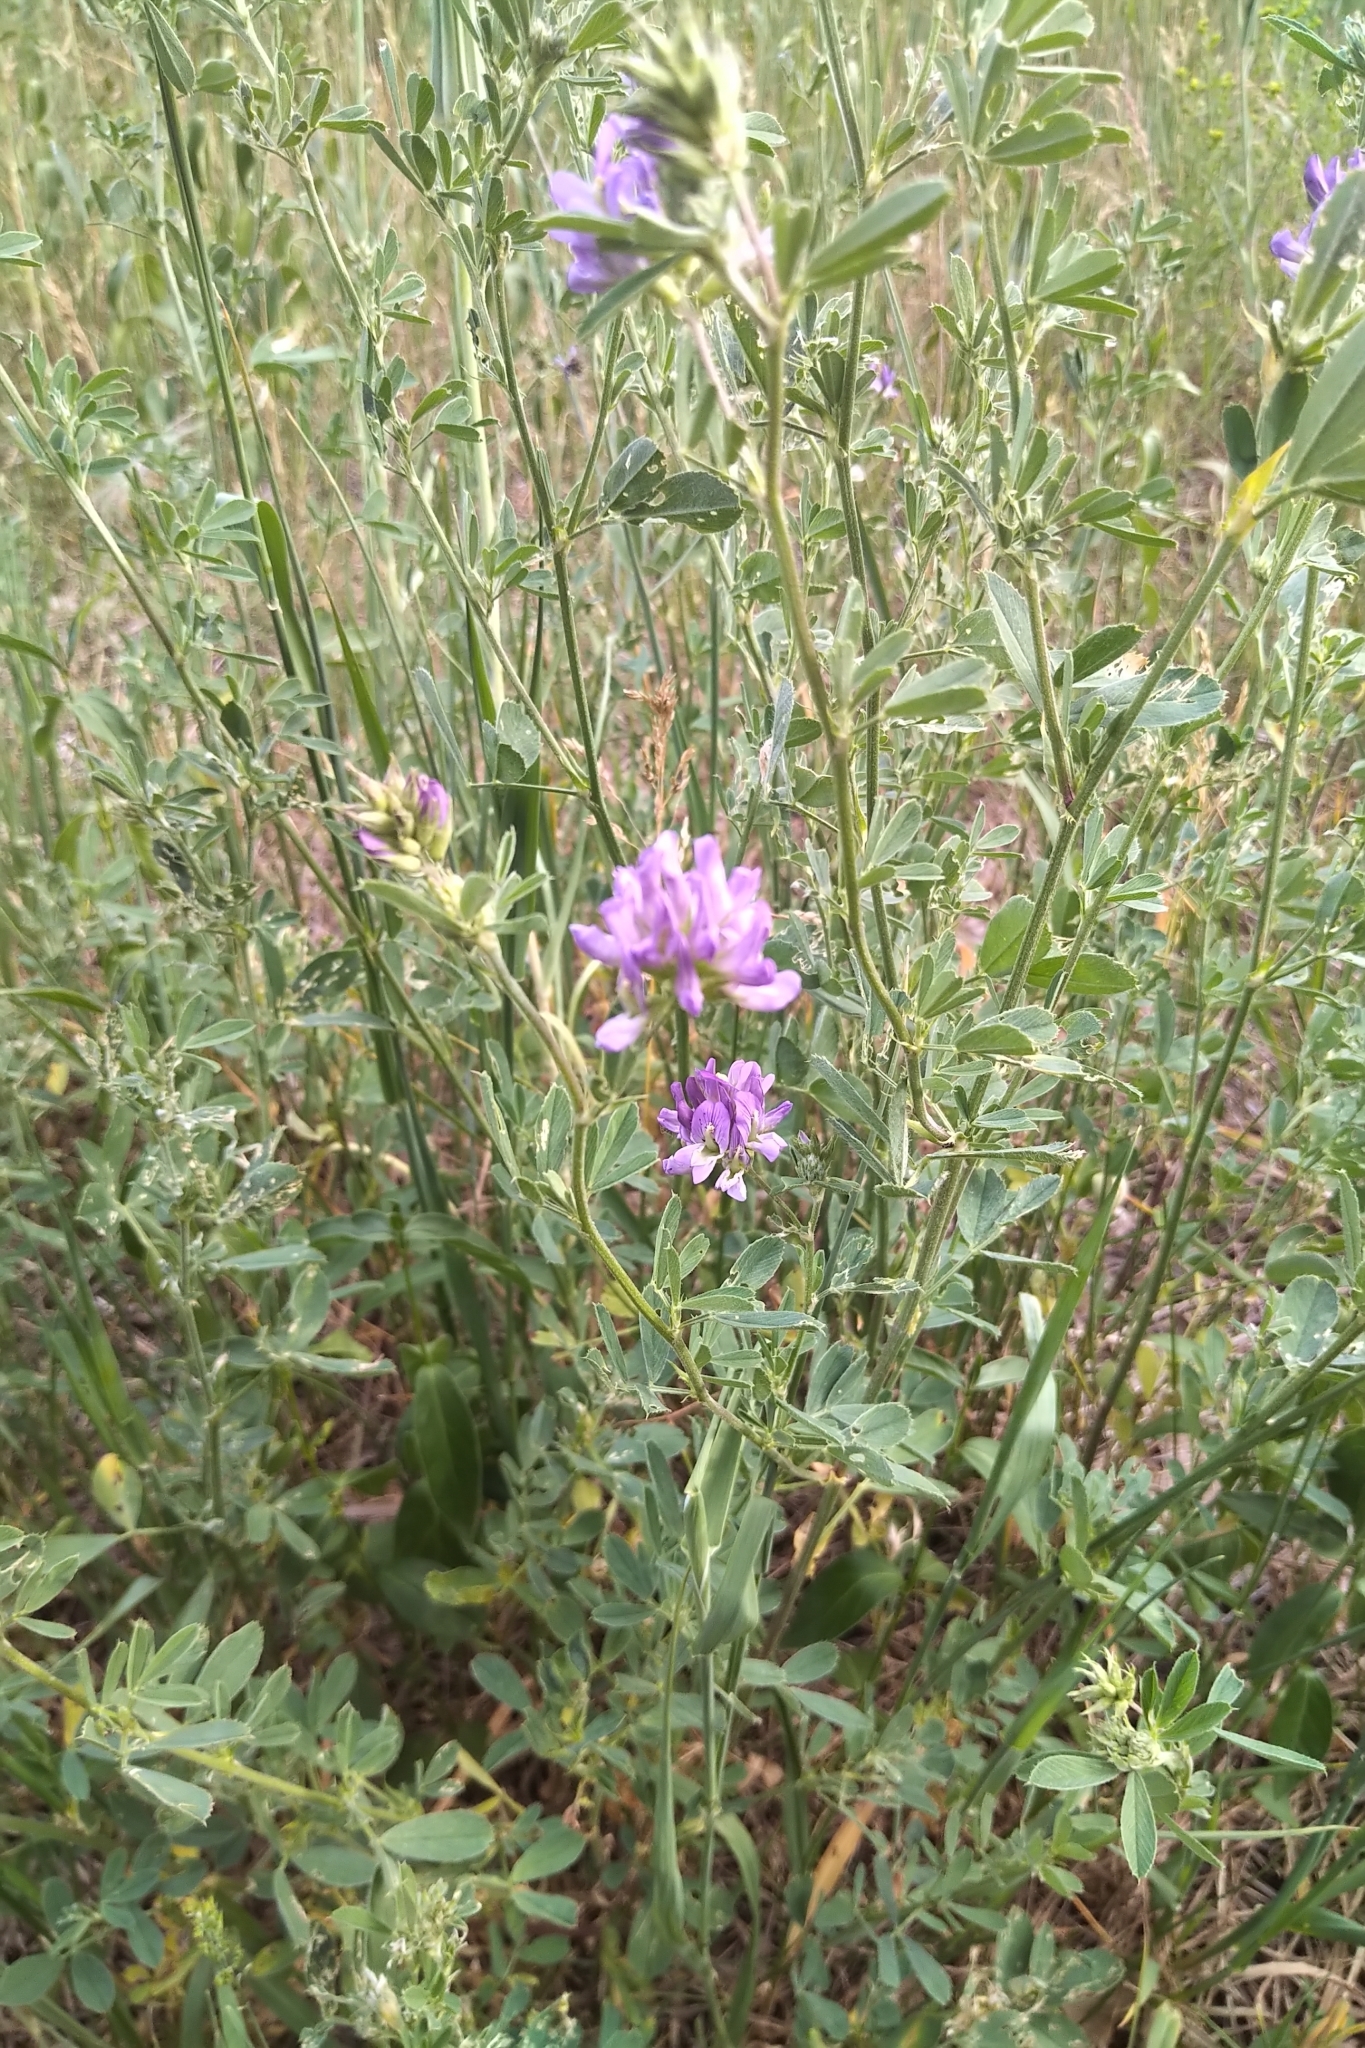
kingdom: Plantae
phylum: Tracheophyta
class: Magnoliopsida
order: Fabales
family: Fabaceae
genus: Medicago
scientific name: Medicago sativa
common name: Alfalfa
